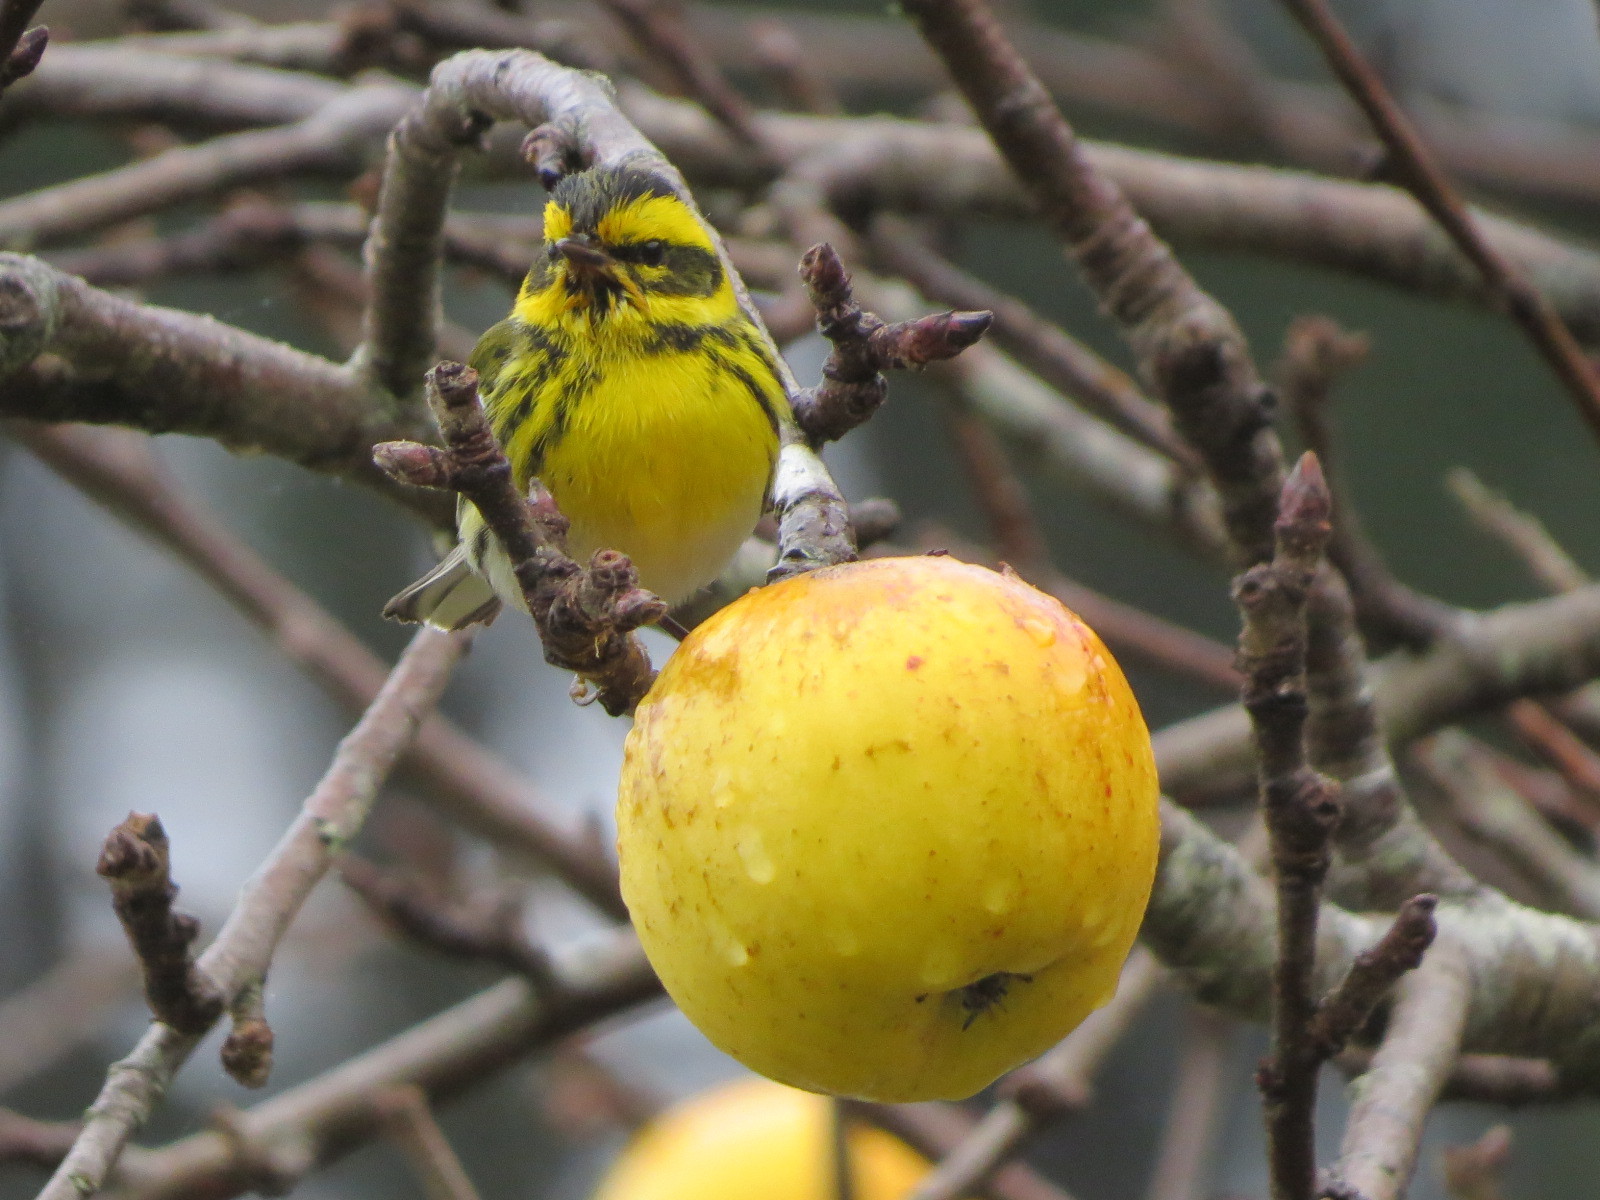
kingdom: Animalia
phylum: Chordata
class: Aves
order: Passeriformes
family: Parulidae
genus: Setophaga
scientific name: Setophaga townsendi
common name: Townsend's warbler
